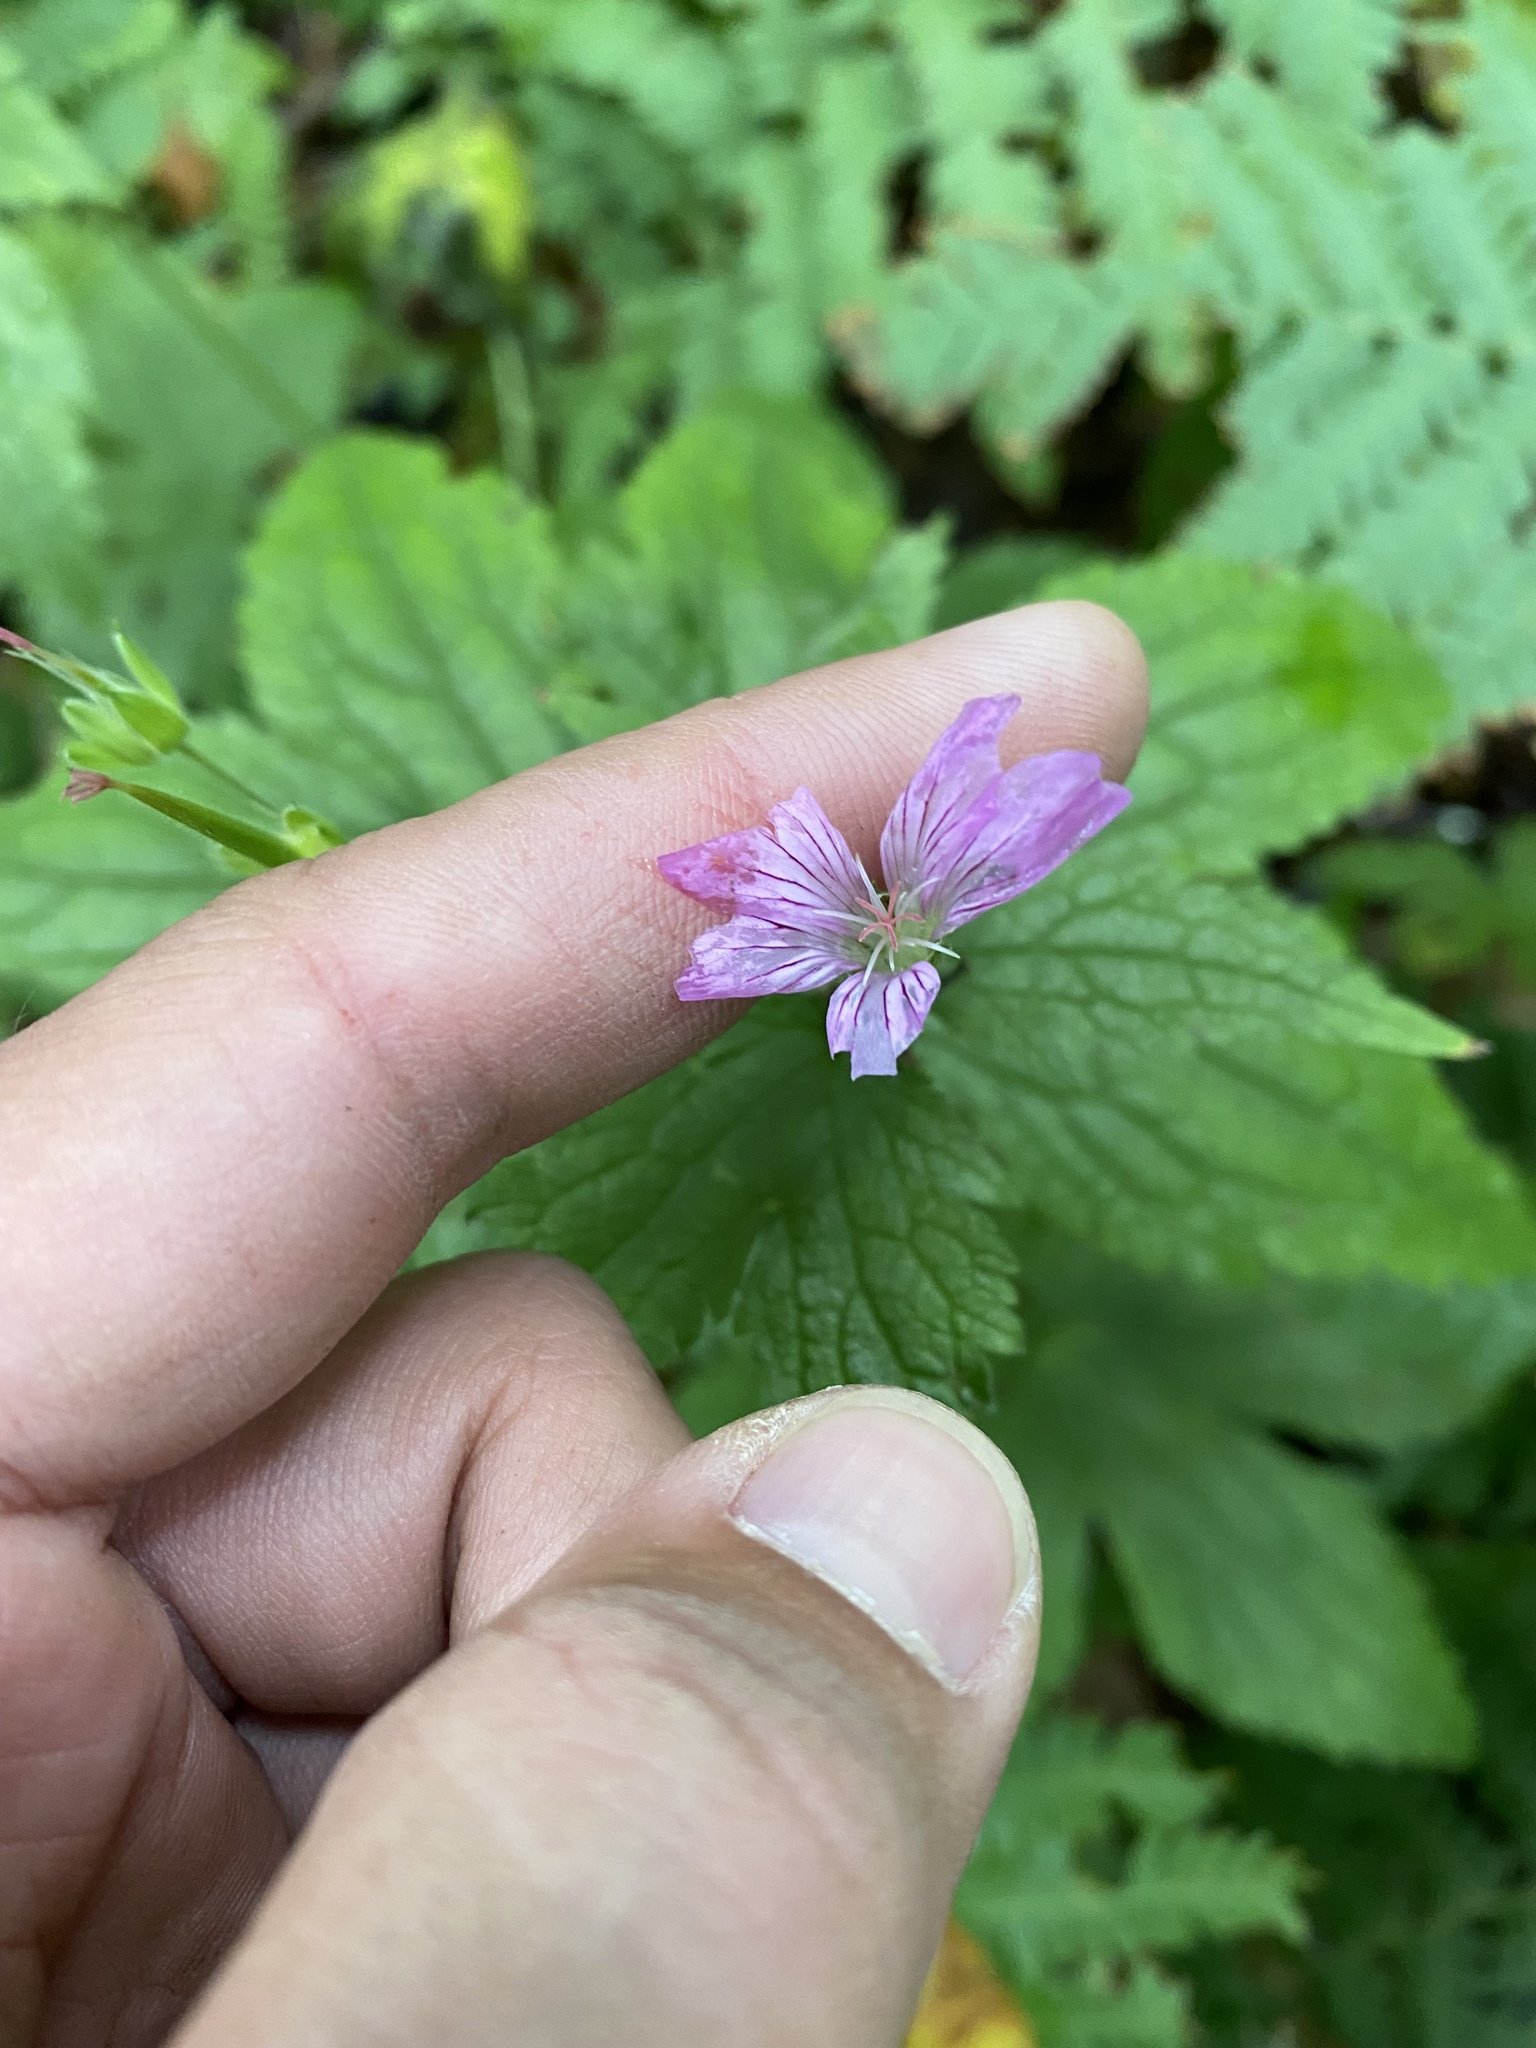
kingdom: Plantae
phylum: Tracheophyta
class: Magnoliopsida
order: Geraniales
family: Geraniaceae
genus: Geranium
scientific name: Geranium gracile
